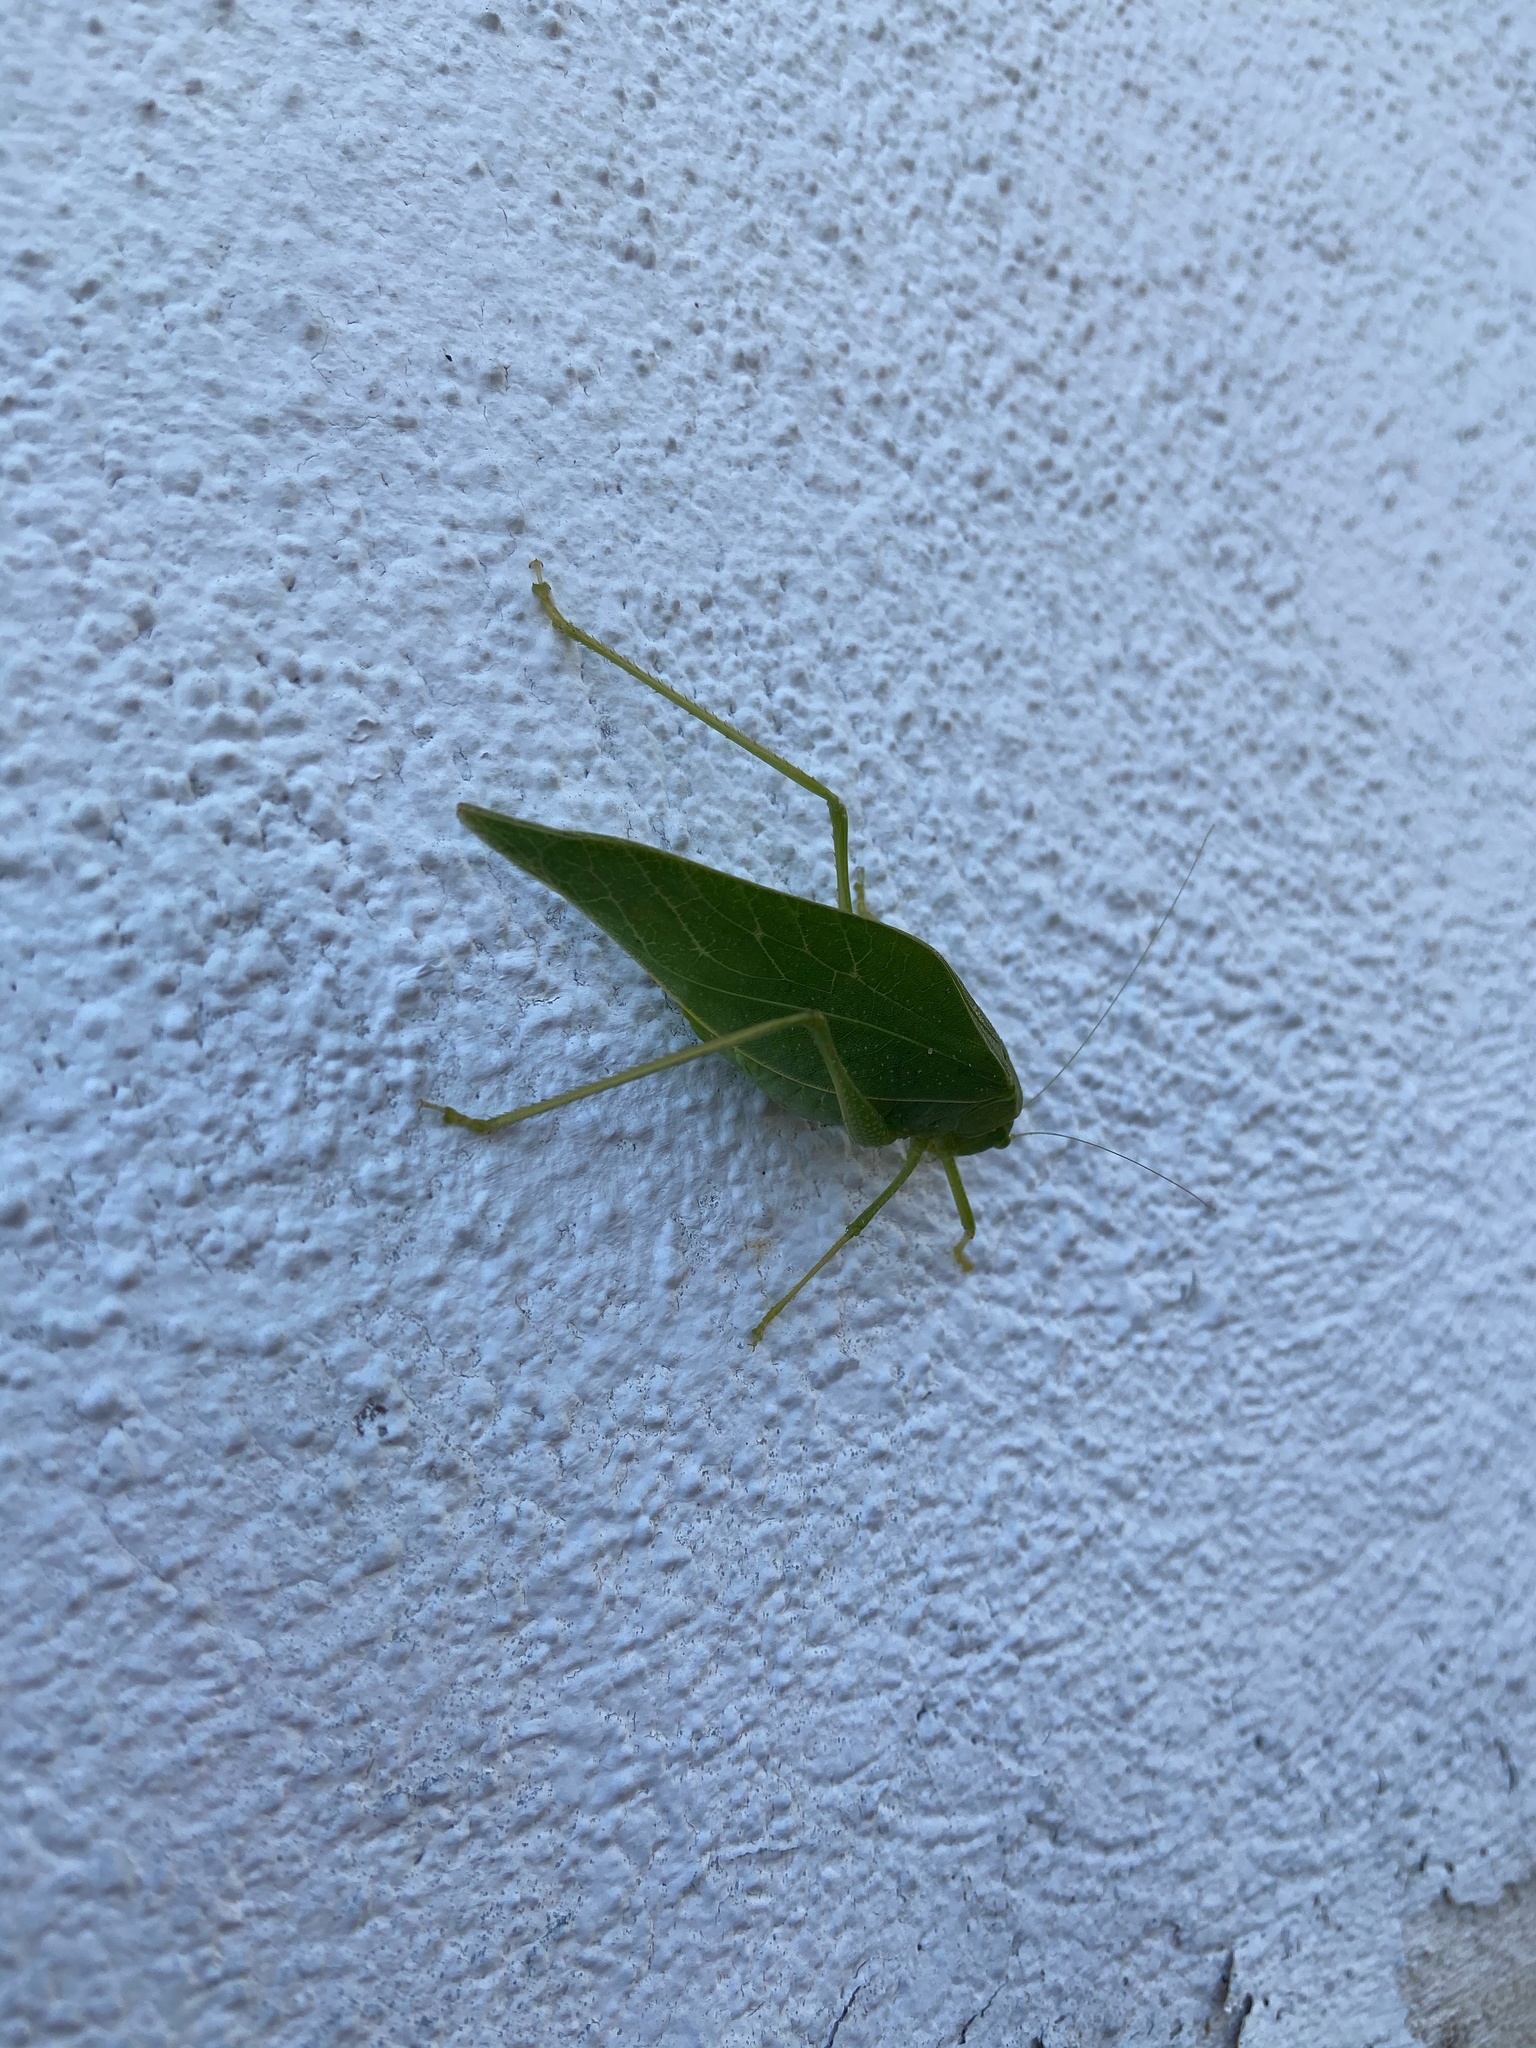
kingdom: Animalia
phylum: Arthropoda
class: Insecta
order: Orthoptera
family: Tettigoniidae
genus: Microcentrum
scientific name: Microcentrum rhombifolium
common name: Broad-winged katydid
